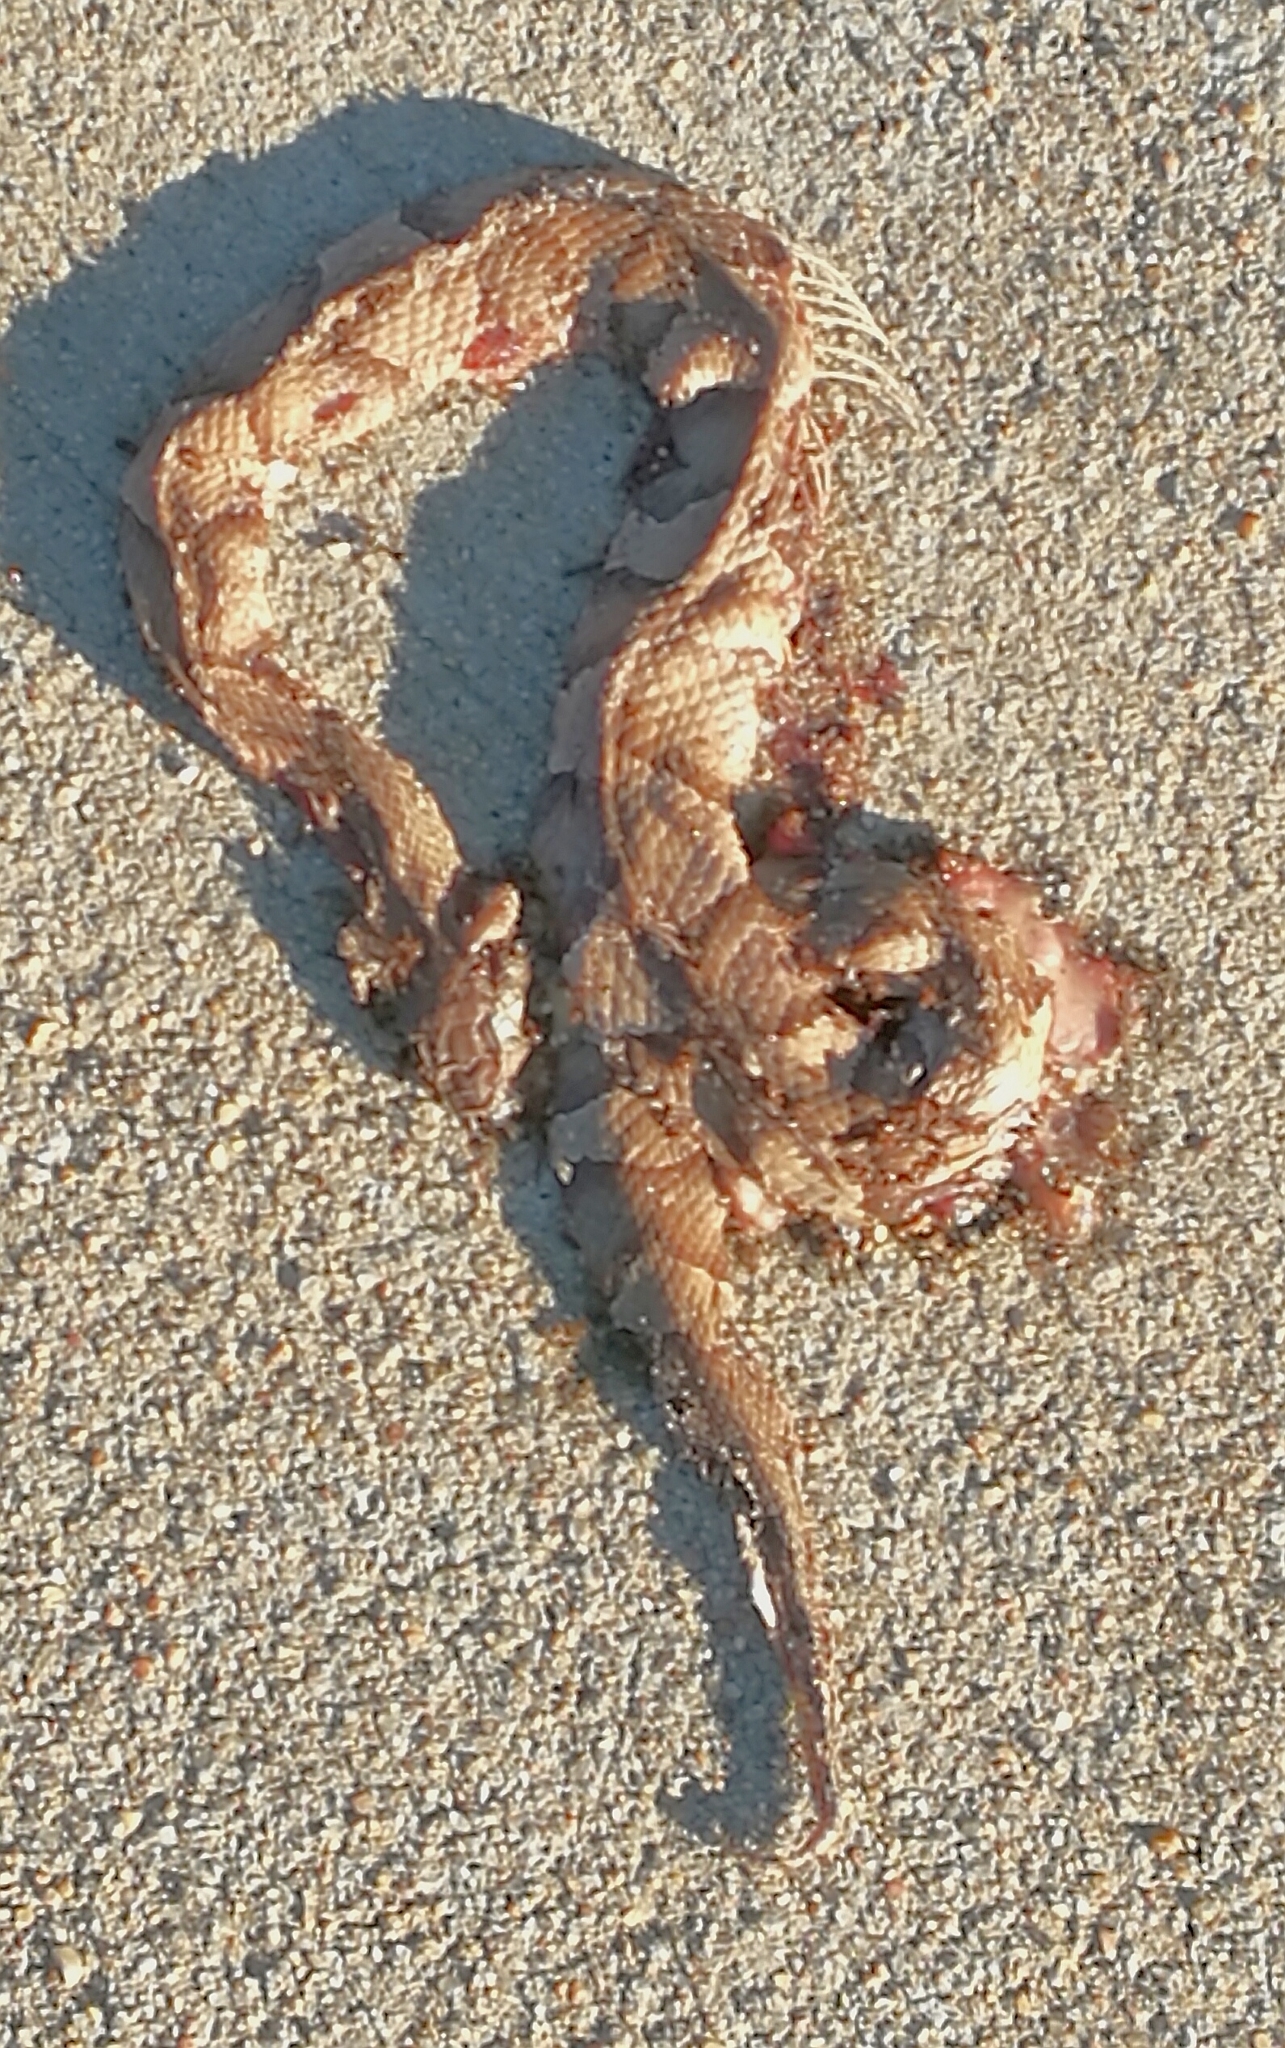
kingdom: Animalia
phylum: Chordata
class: Squamata
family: Viperidae
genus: Agkistrodon
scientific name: Agkistrodon laticinctus
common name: Broad-banded copperhead
